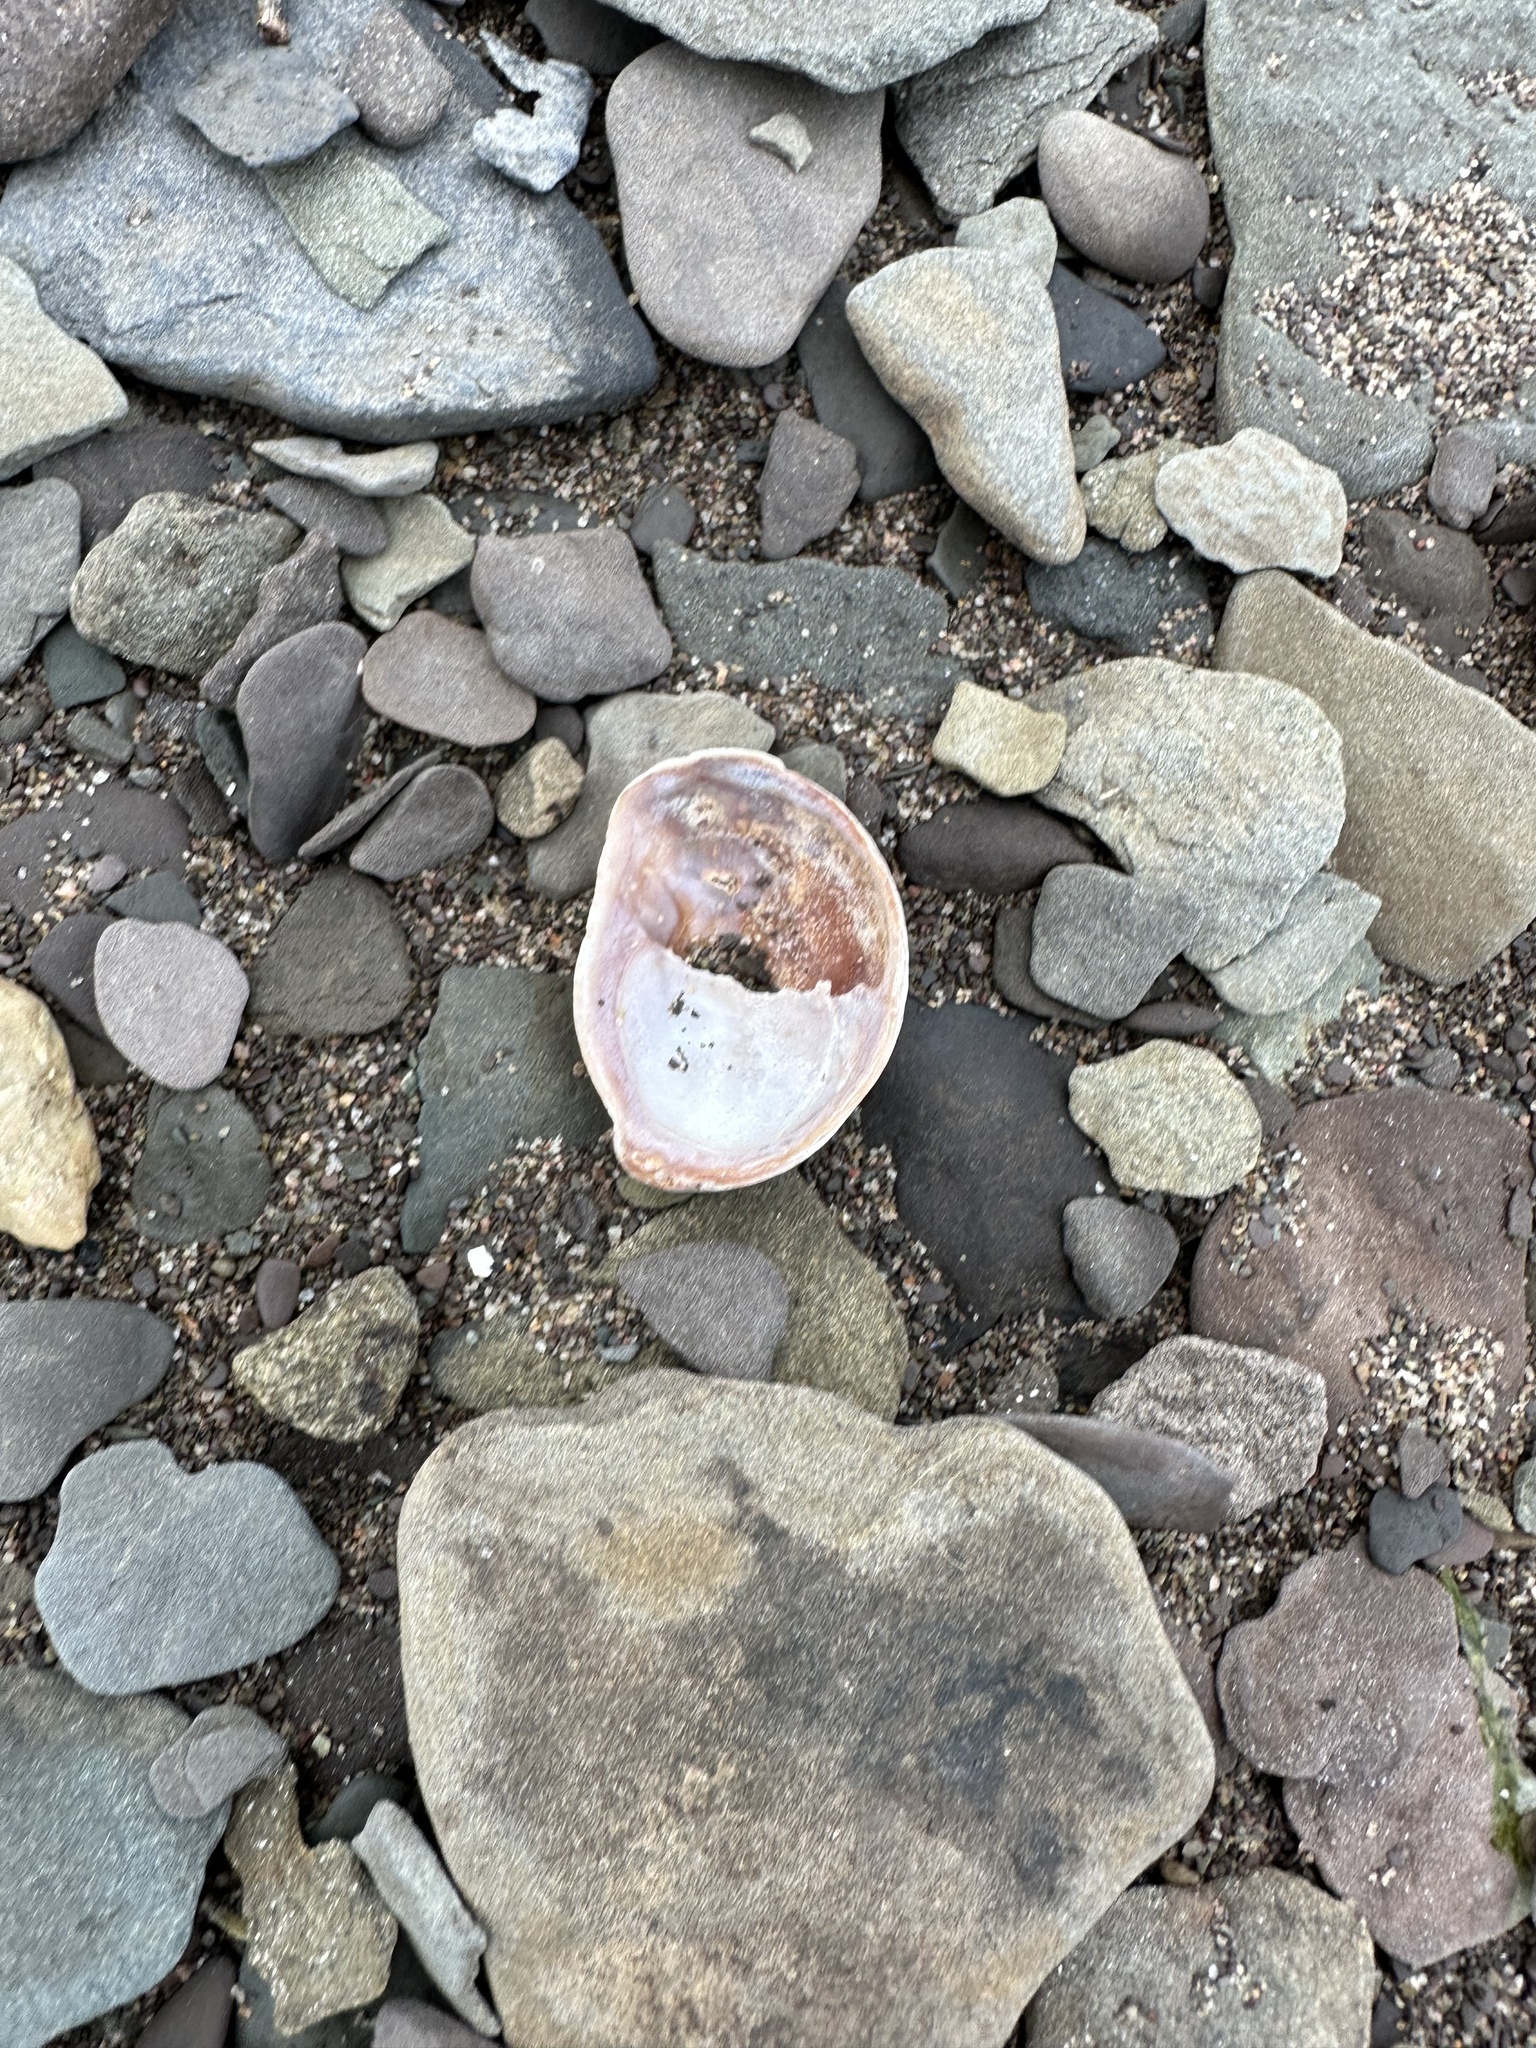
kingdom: Animalia
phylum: Mollusca
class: Gastropoda
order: Littorinimorpha
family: Calyptraeidae
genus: Crepidula
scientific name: Crepidula fornicata
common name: Slipper limpet
